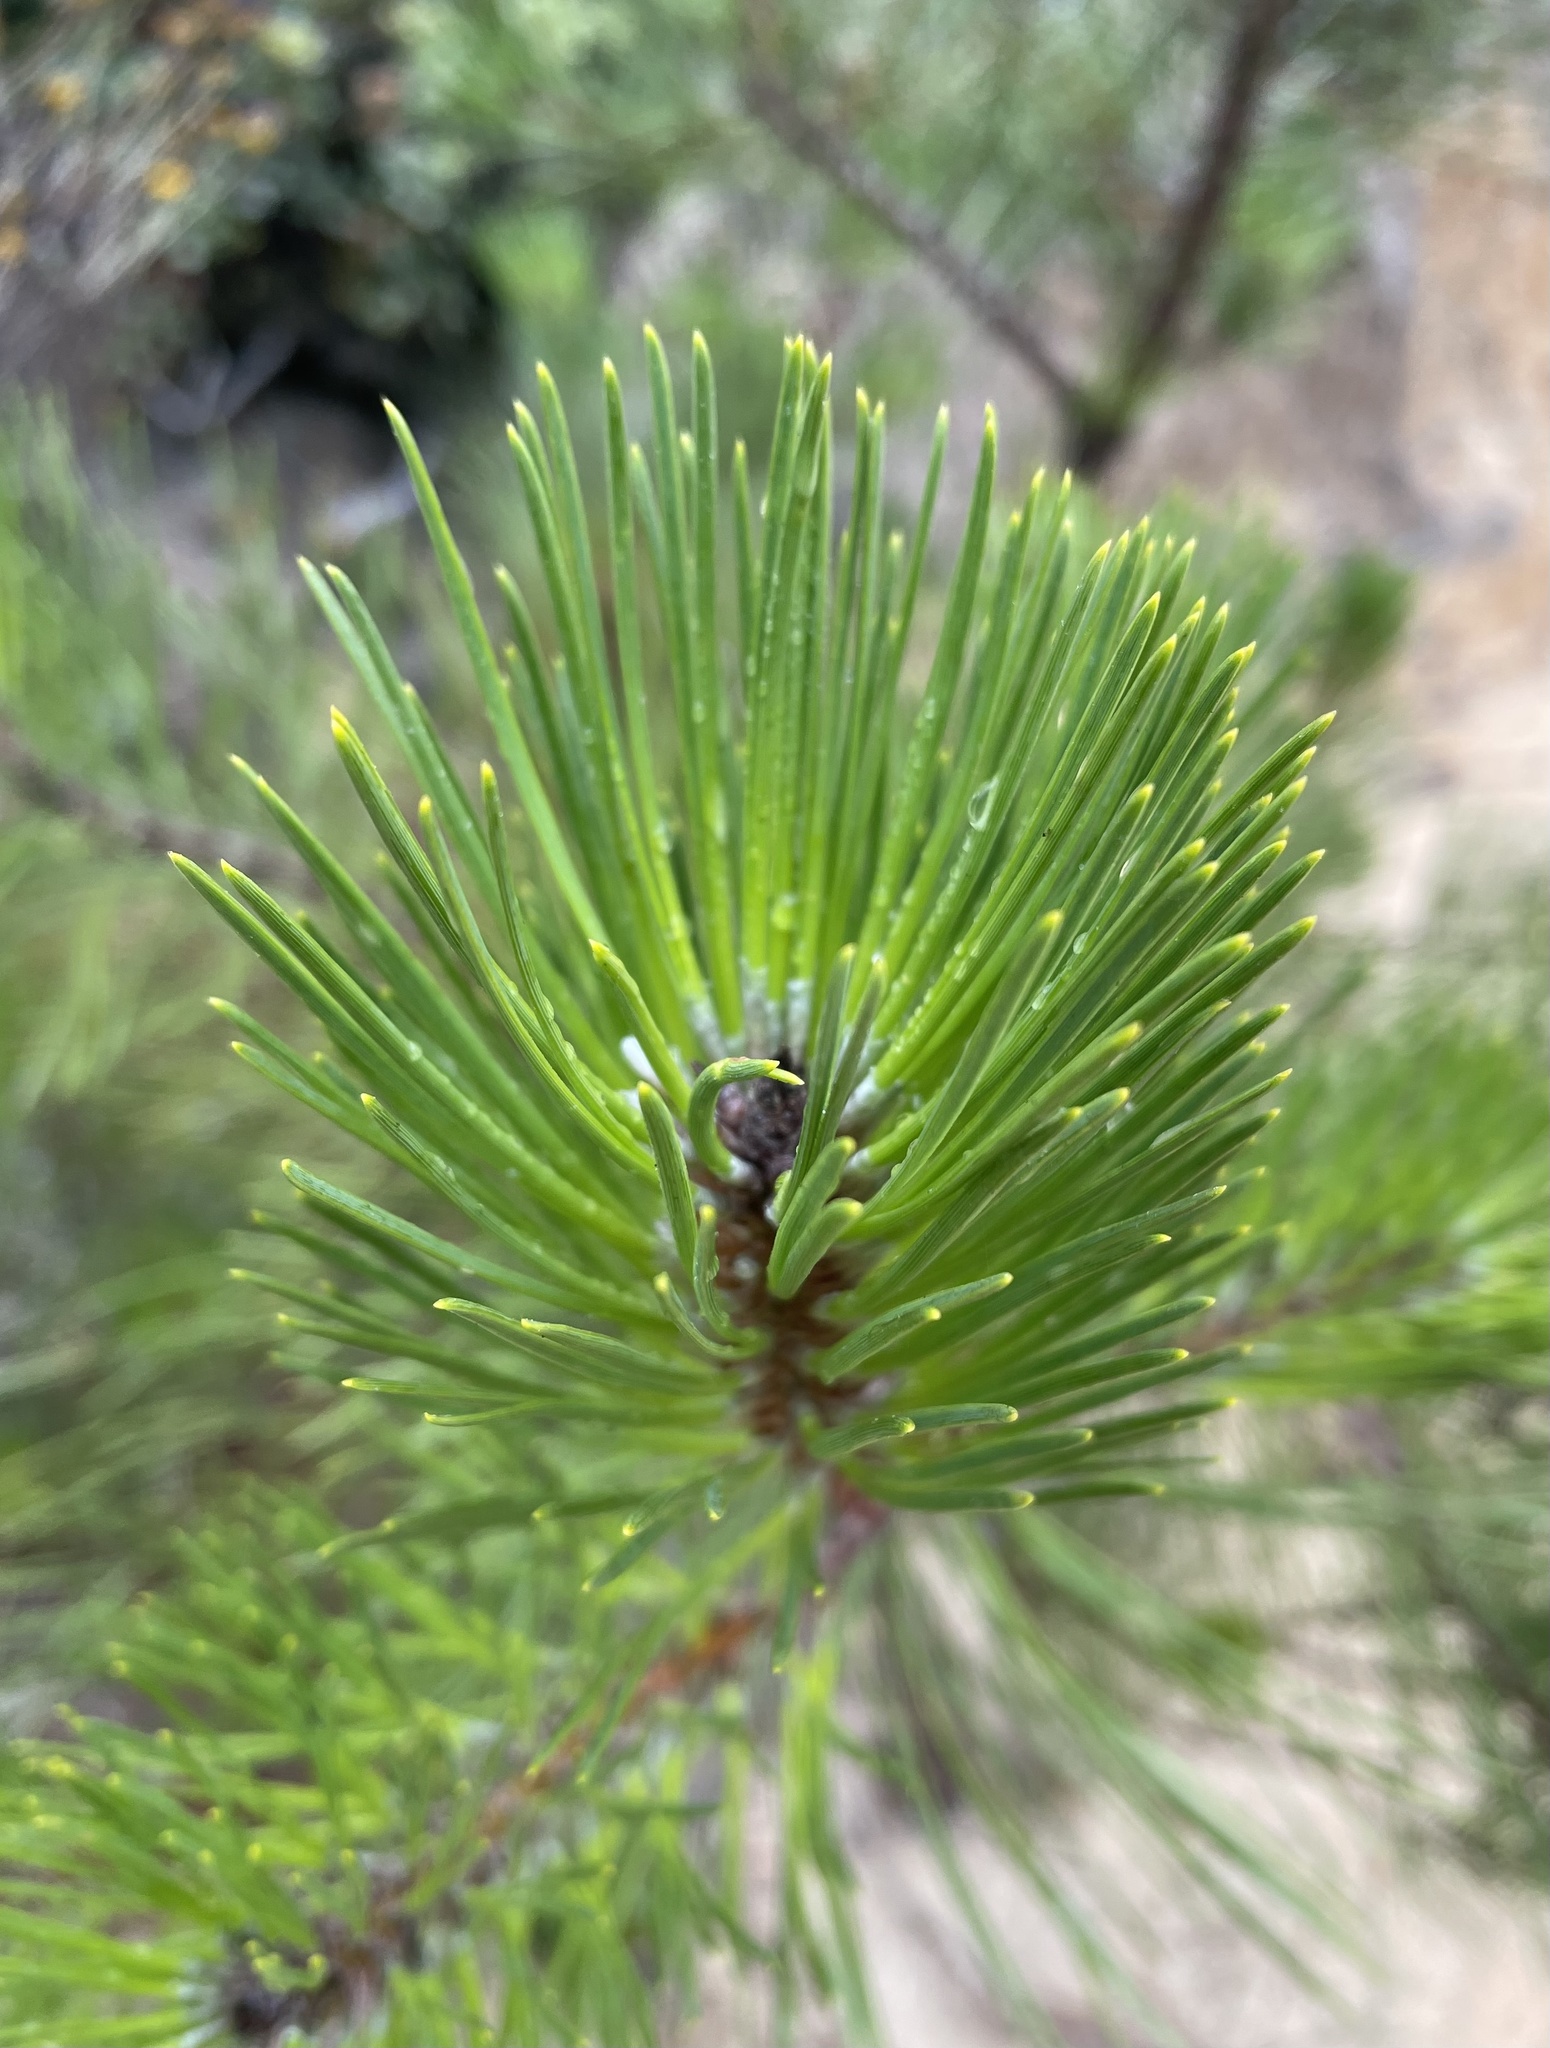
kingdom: Plantae
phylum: Tracheophyta
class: Pinopsida
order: Pinales
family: Pinaceae
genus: Pinus
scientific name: Pinus muricata
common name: Bishop pine
